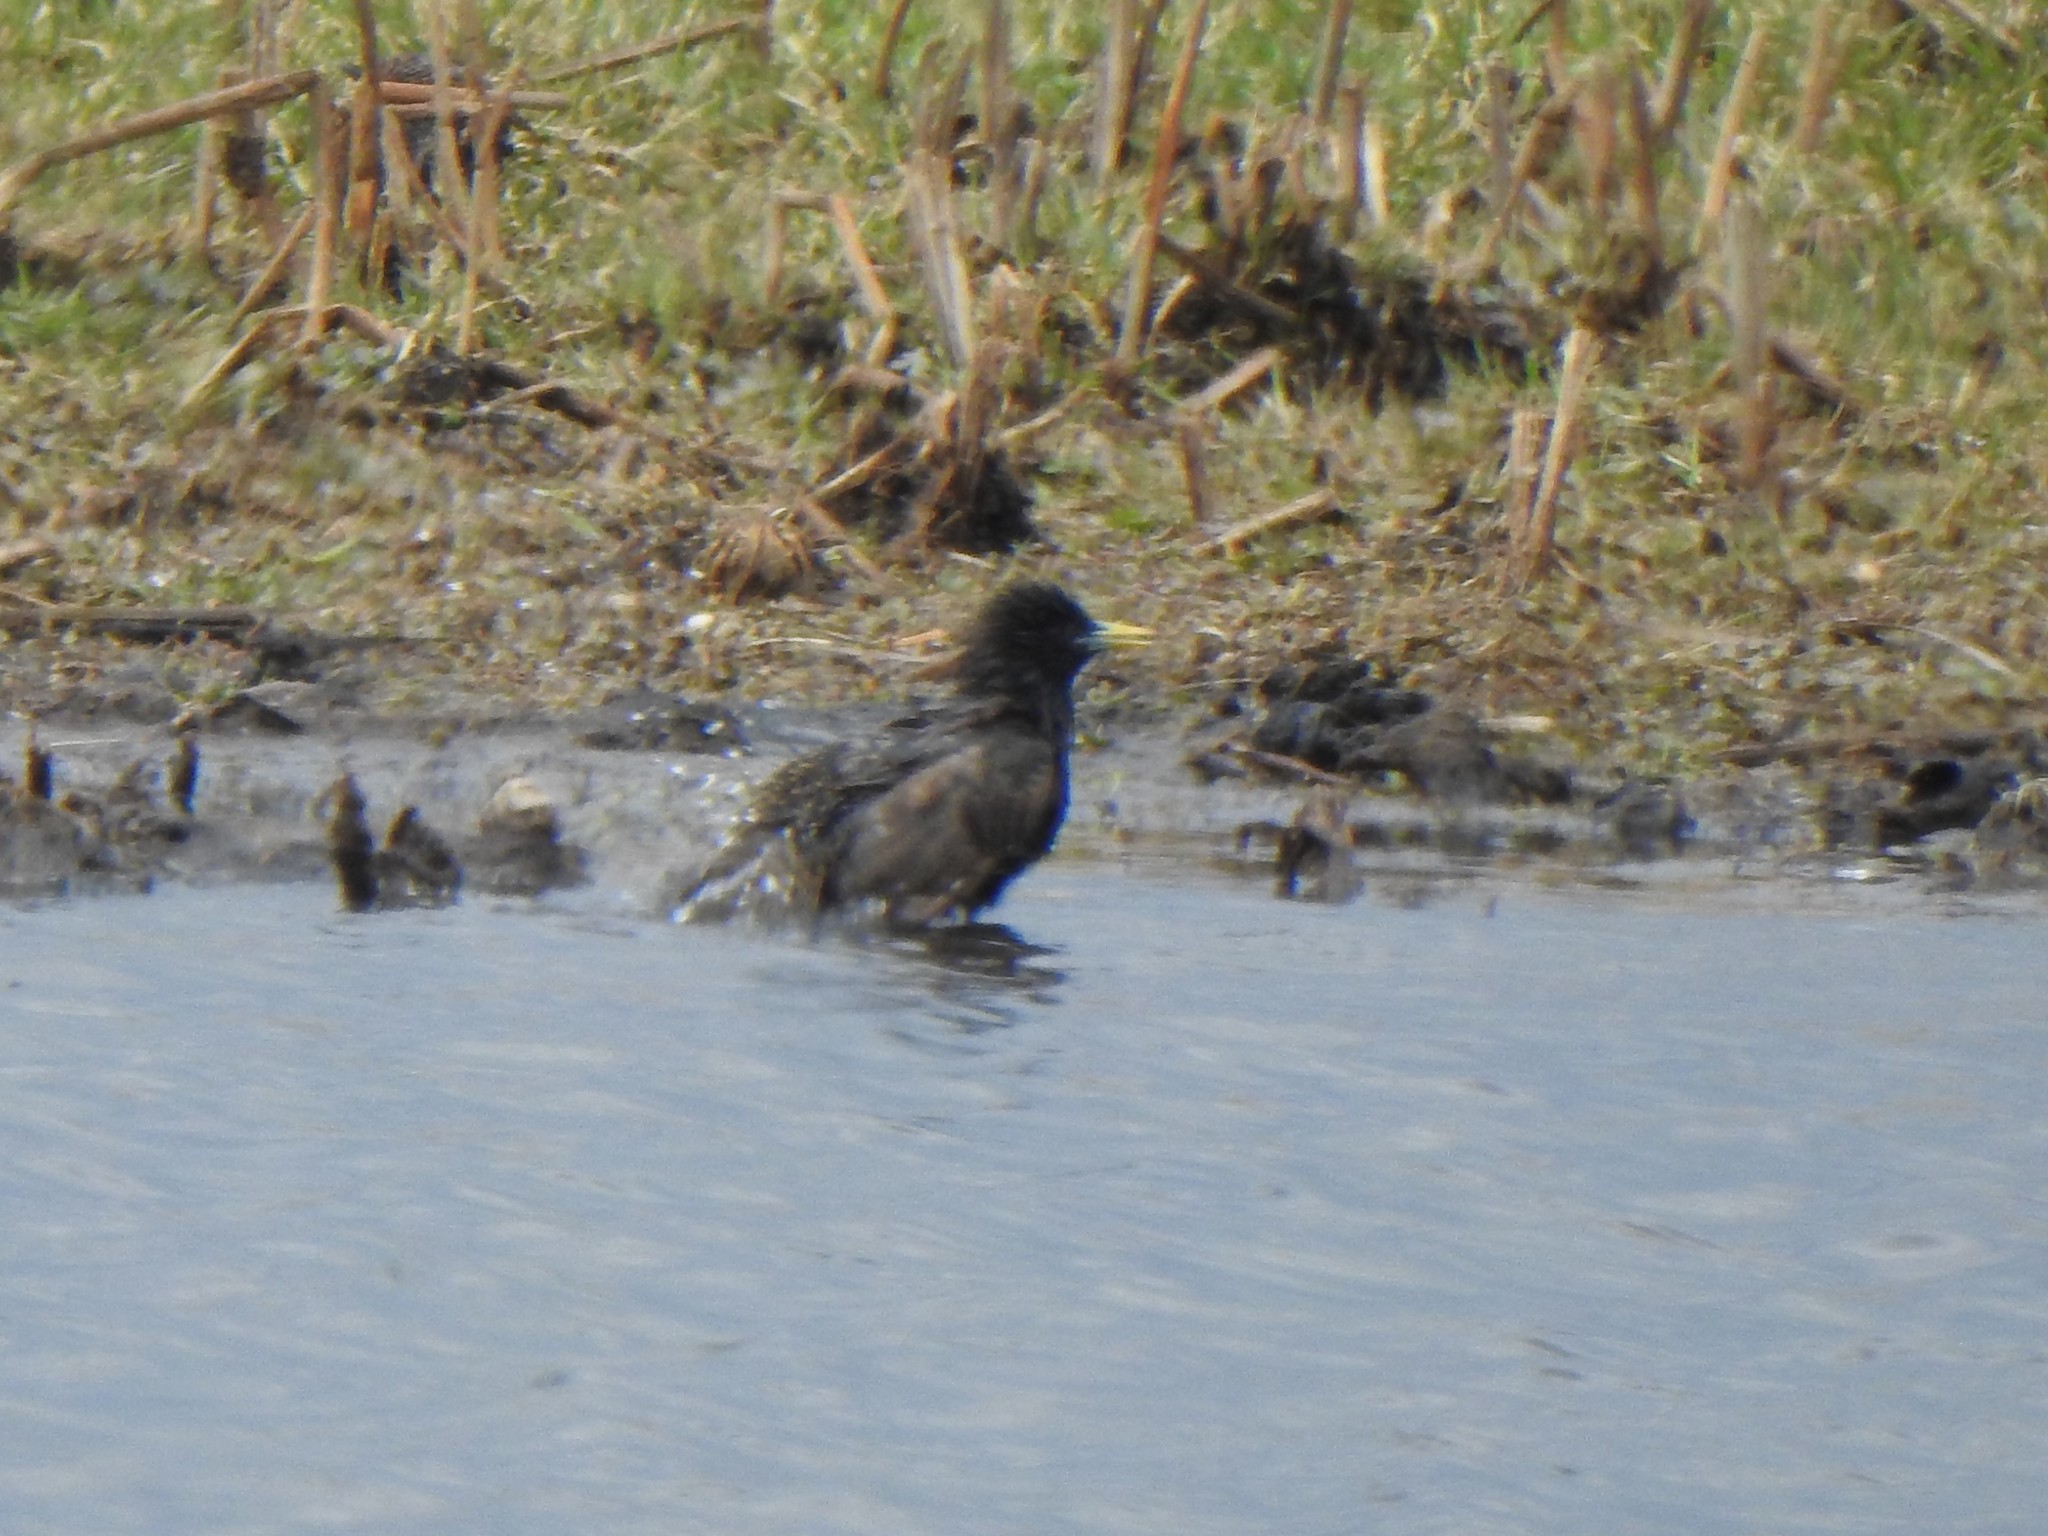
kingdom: Animalia
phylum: Chordata
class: Aves
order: Passeriformes
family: Sturnidae
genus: Sturnus
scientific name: Sturnus vulgaris
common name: Common starling
